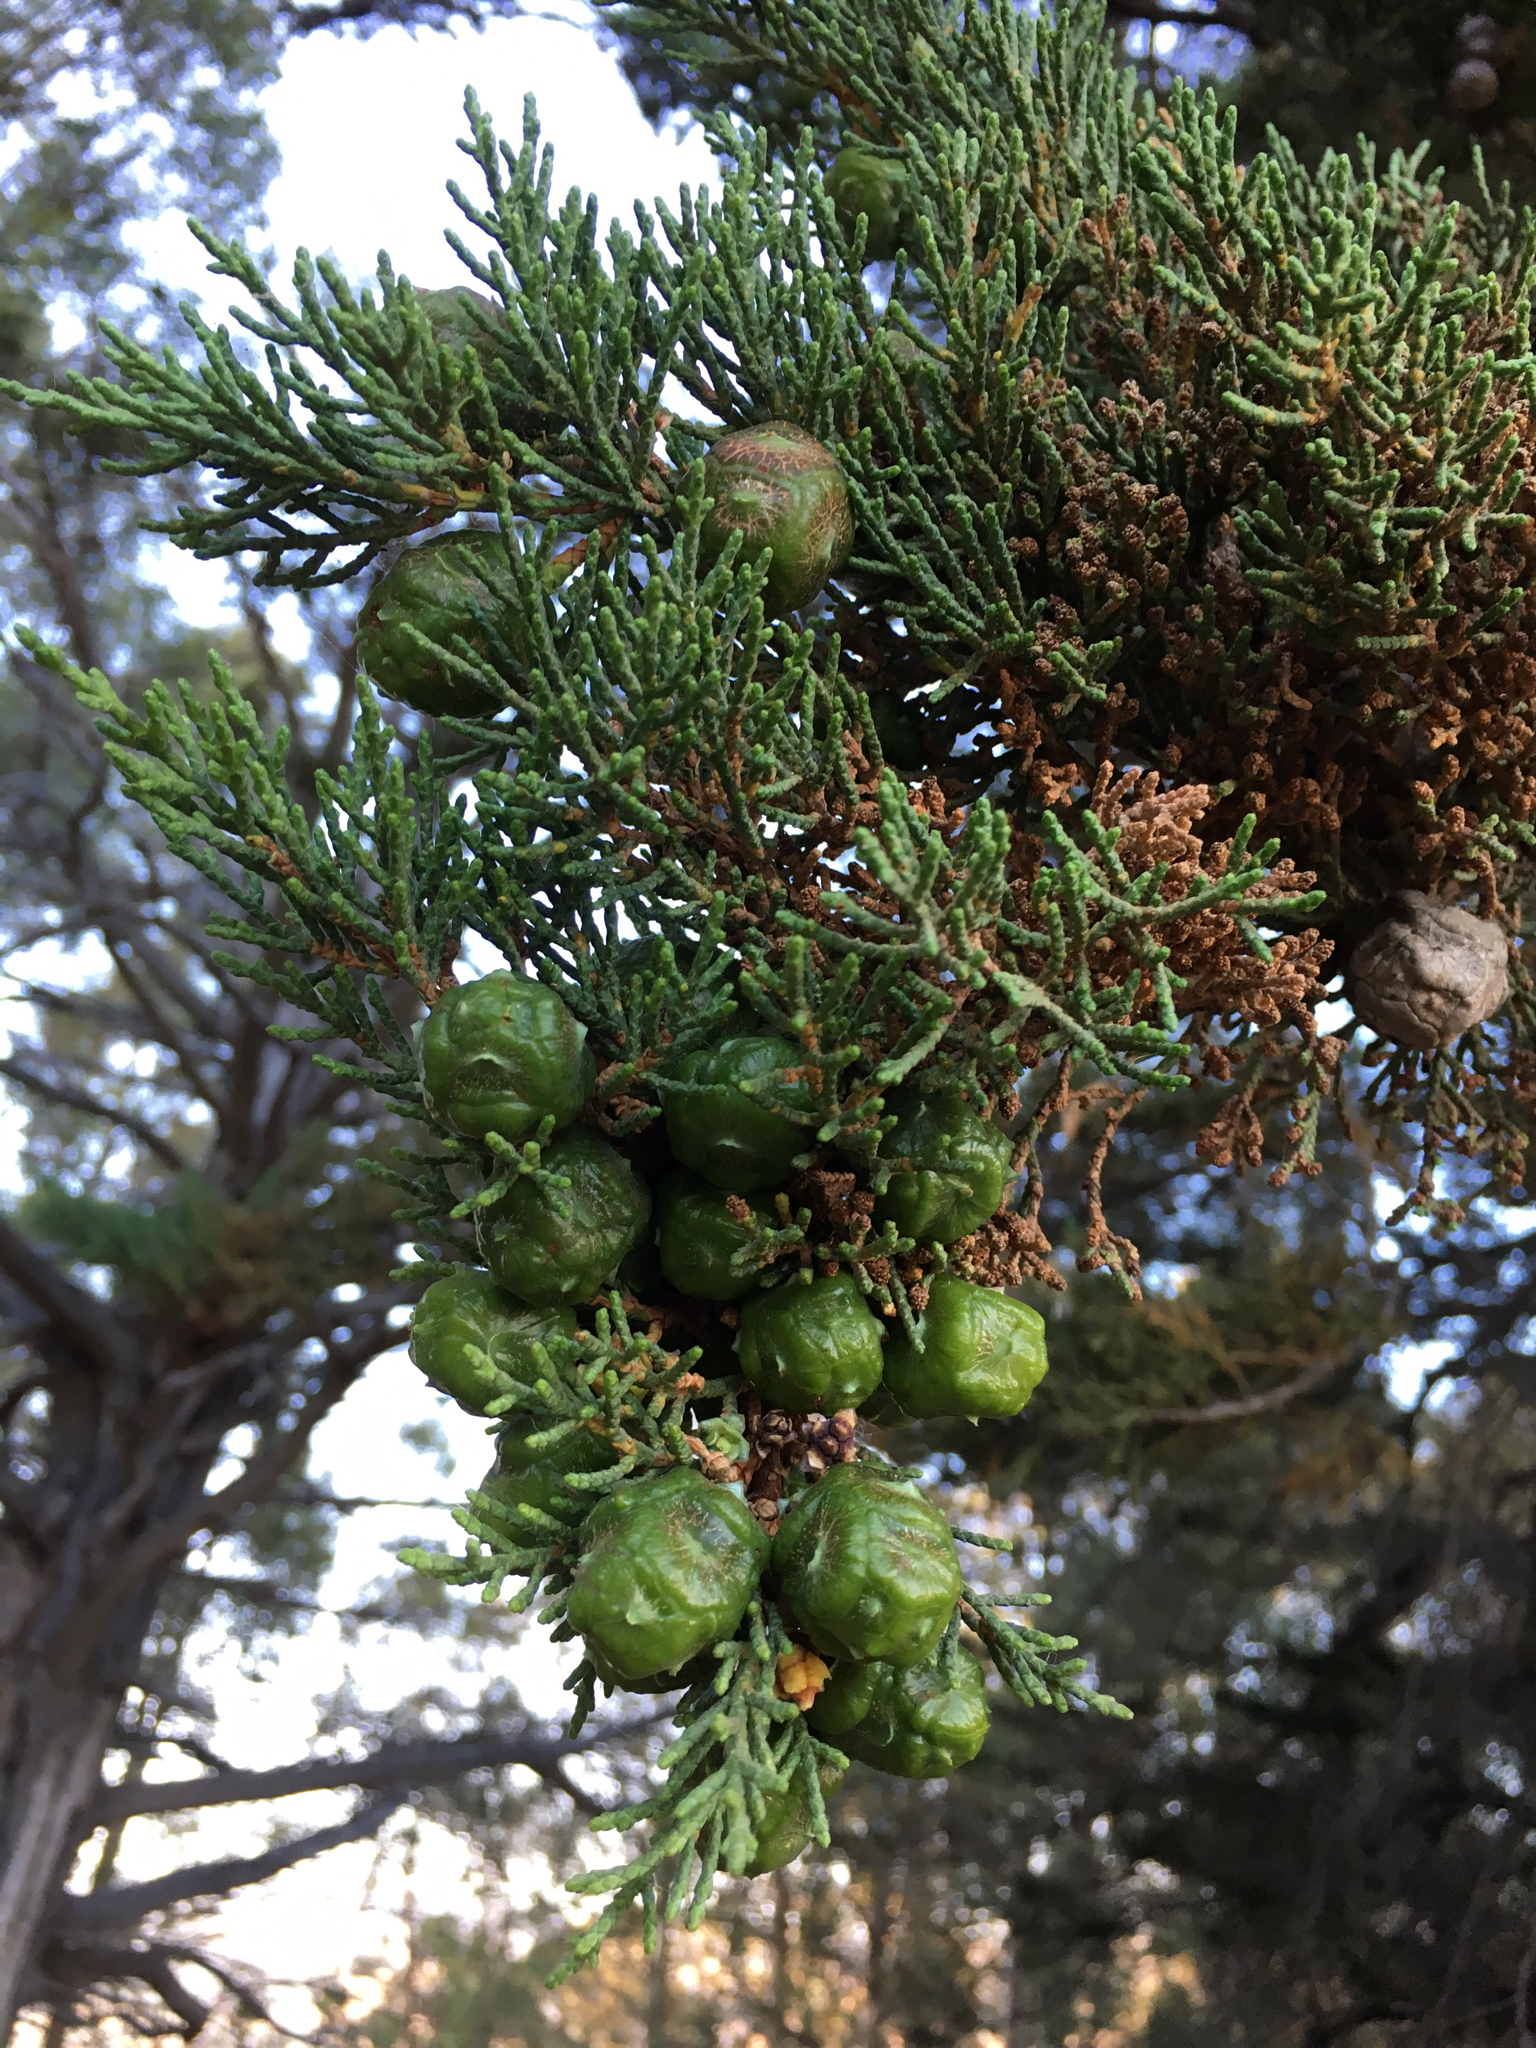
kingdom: Plantae
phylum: Tracheophyta
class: Pinopsida
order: Pinales
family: Cupressaceae
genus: Cupressus
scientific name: Cupressus macrocarpa
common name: Monterey cypress
